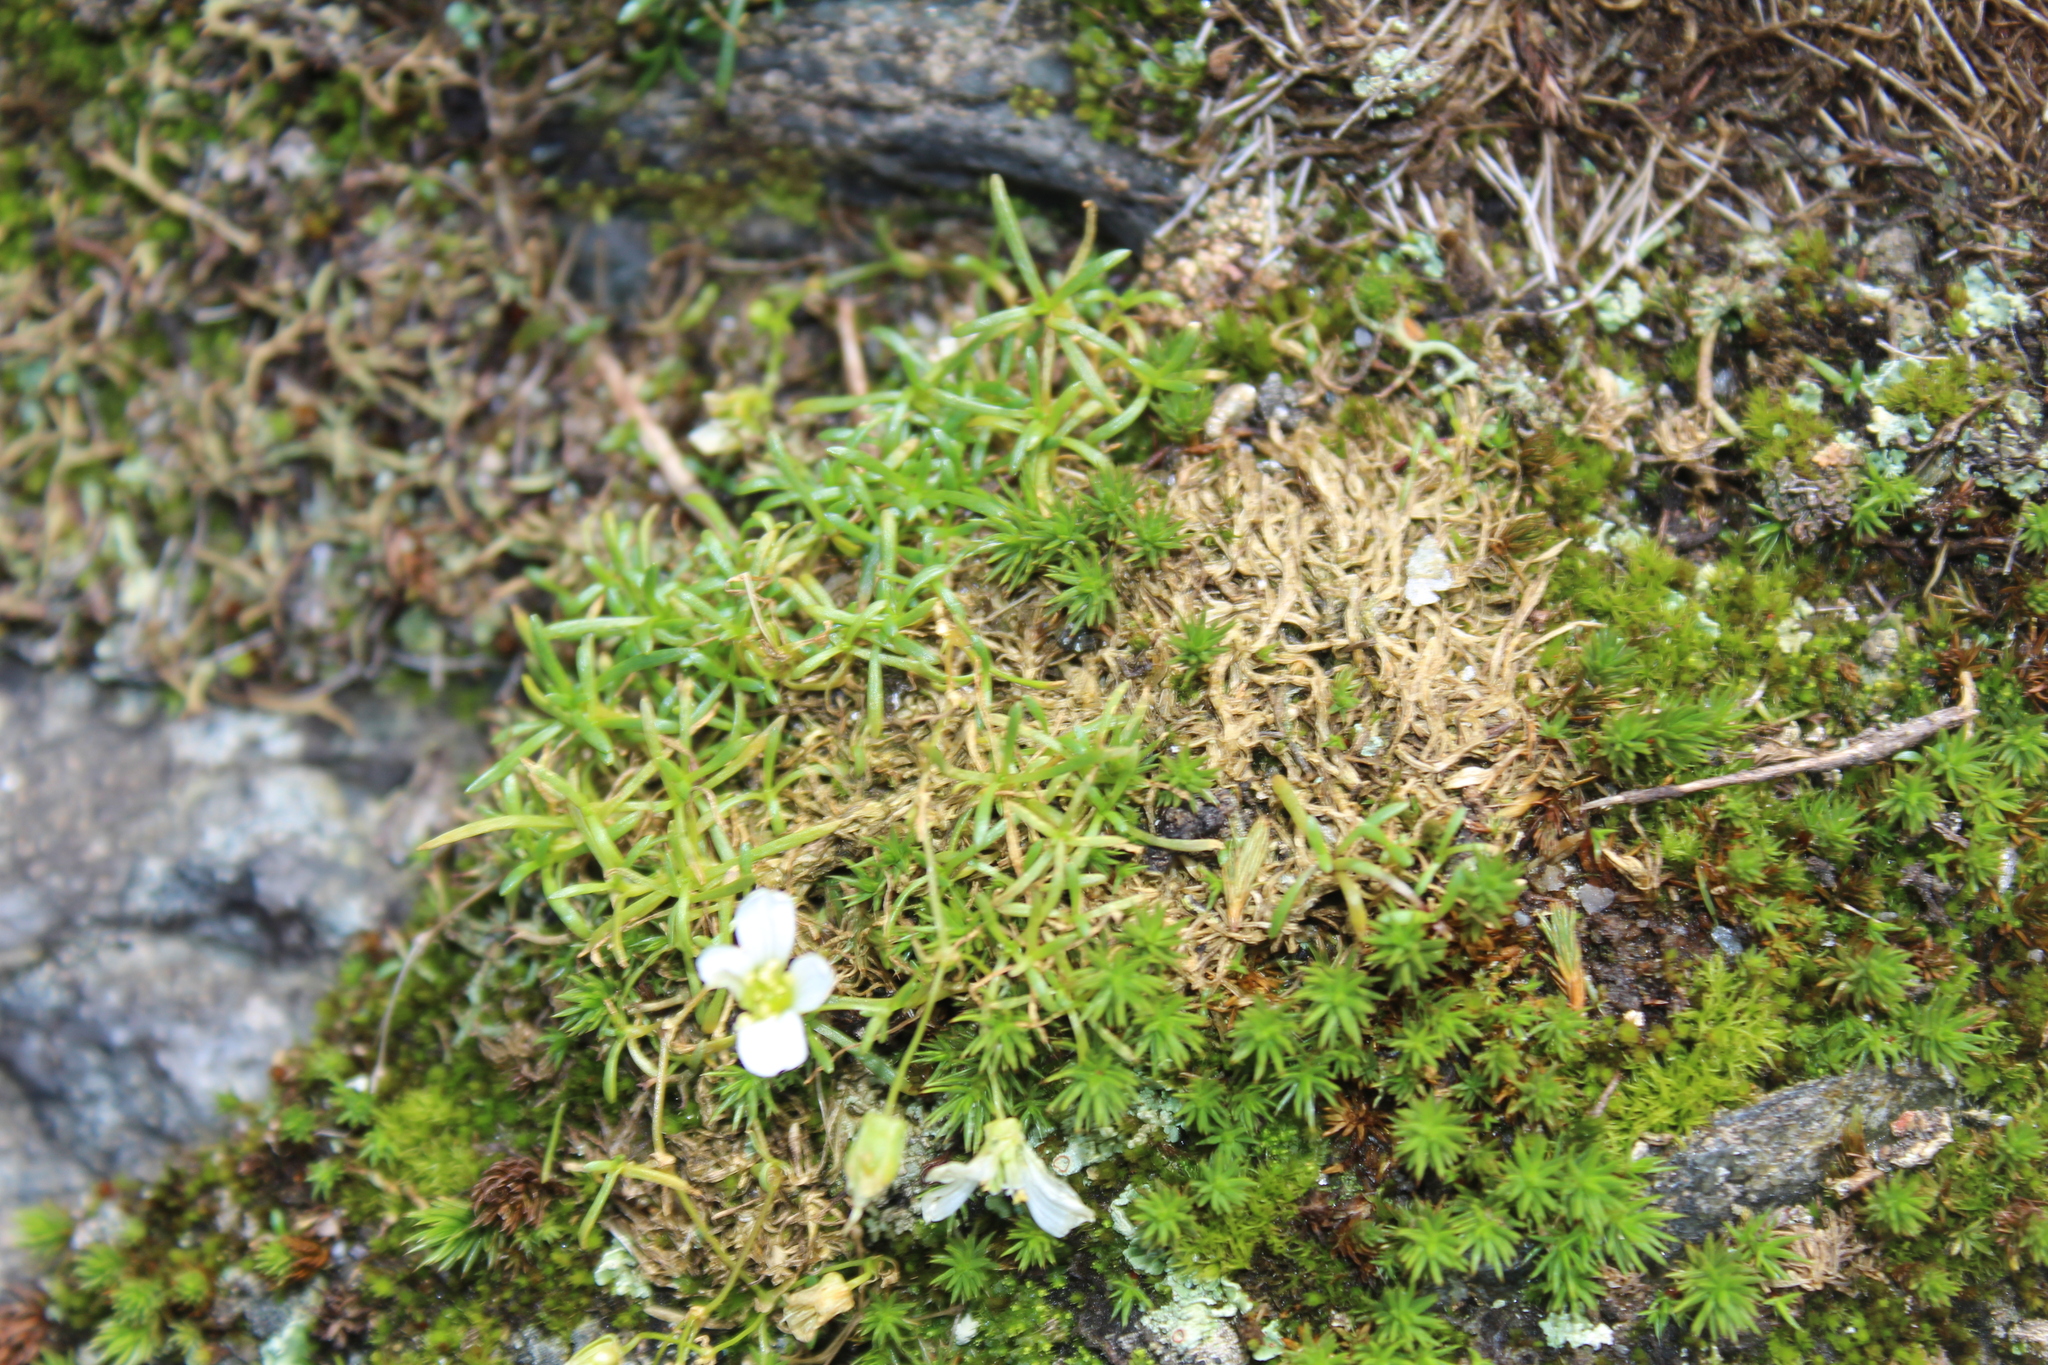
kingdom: Plantae
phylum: Tracheophyta
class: Magnoliopsida
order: Caryophyllales
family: Caryophyllaceae
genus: Geocarpon
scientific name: Geocarpon groenlandicum
